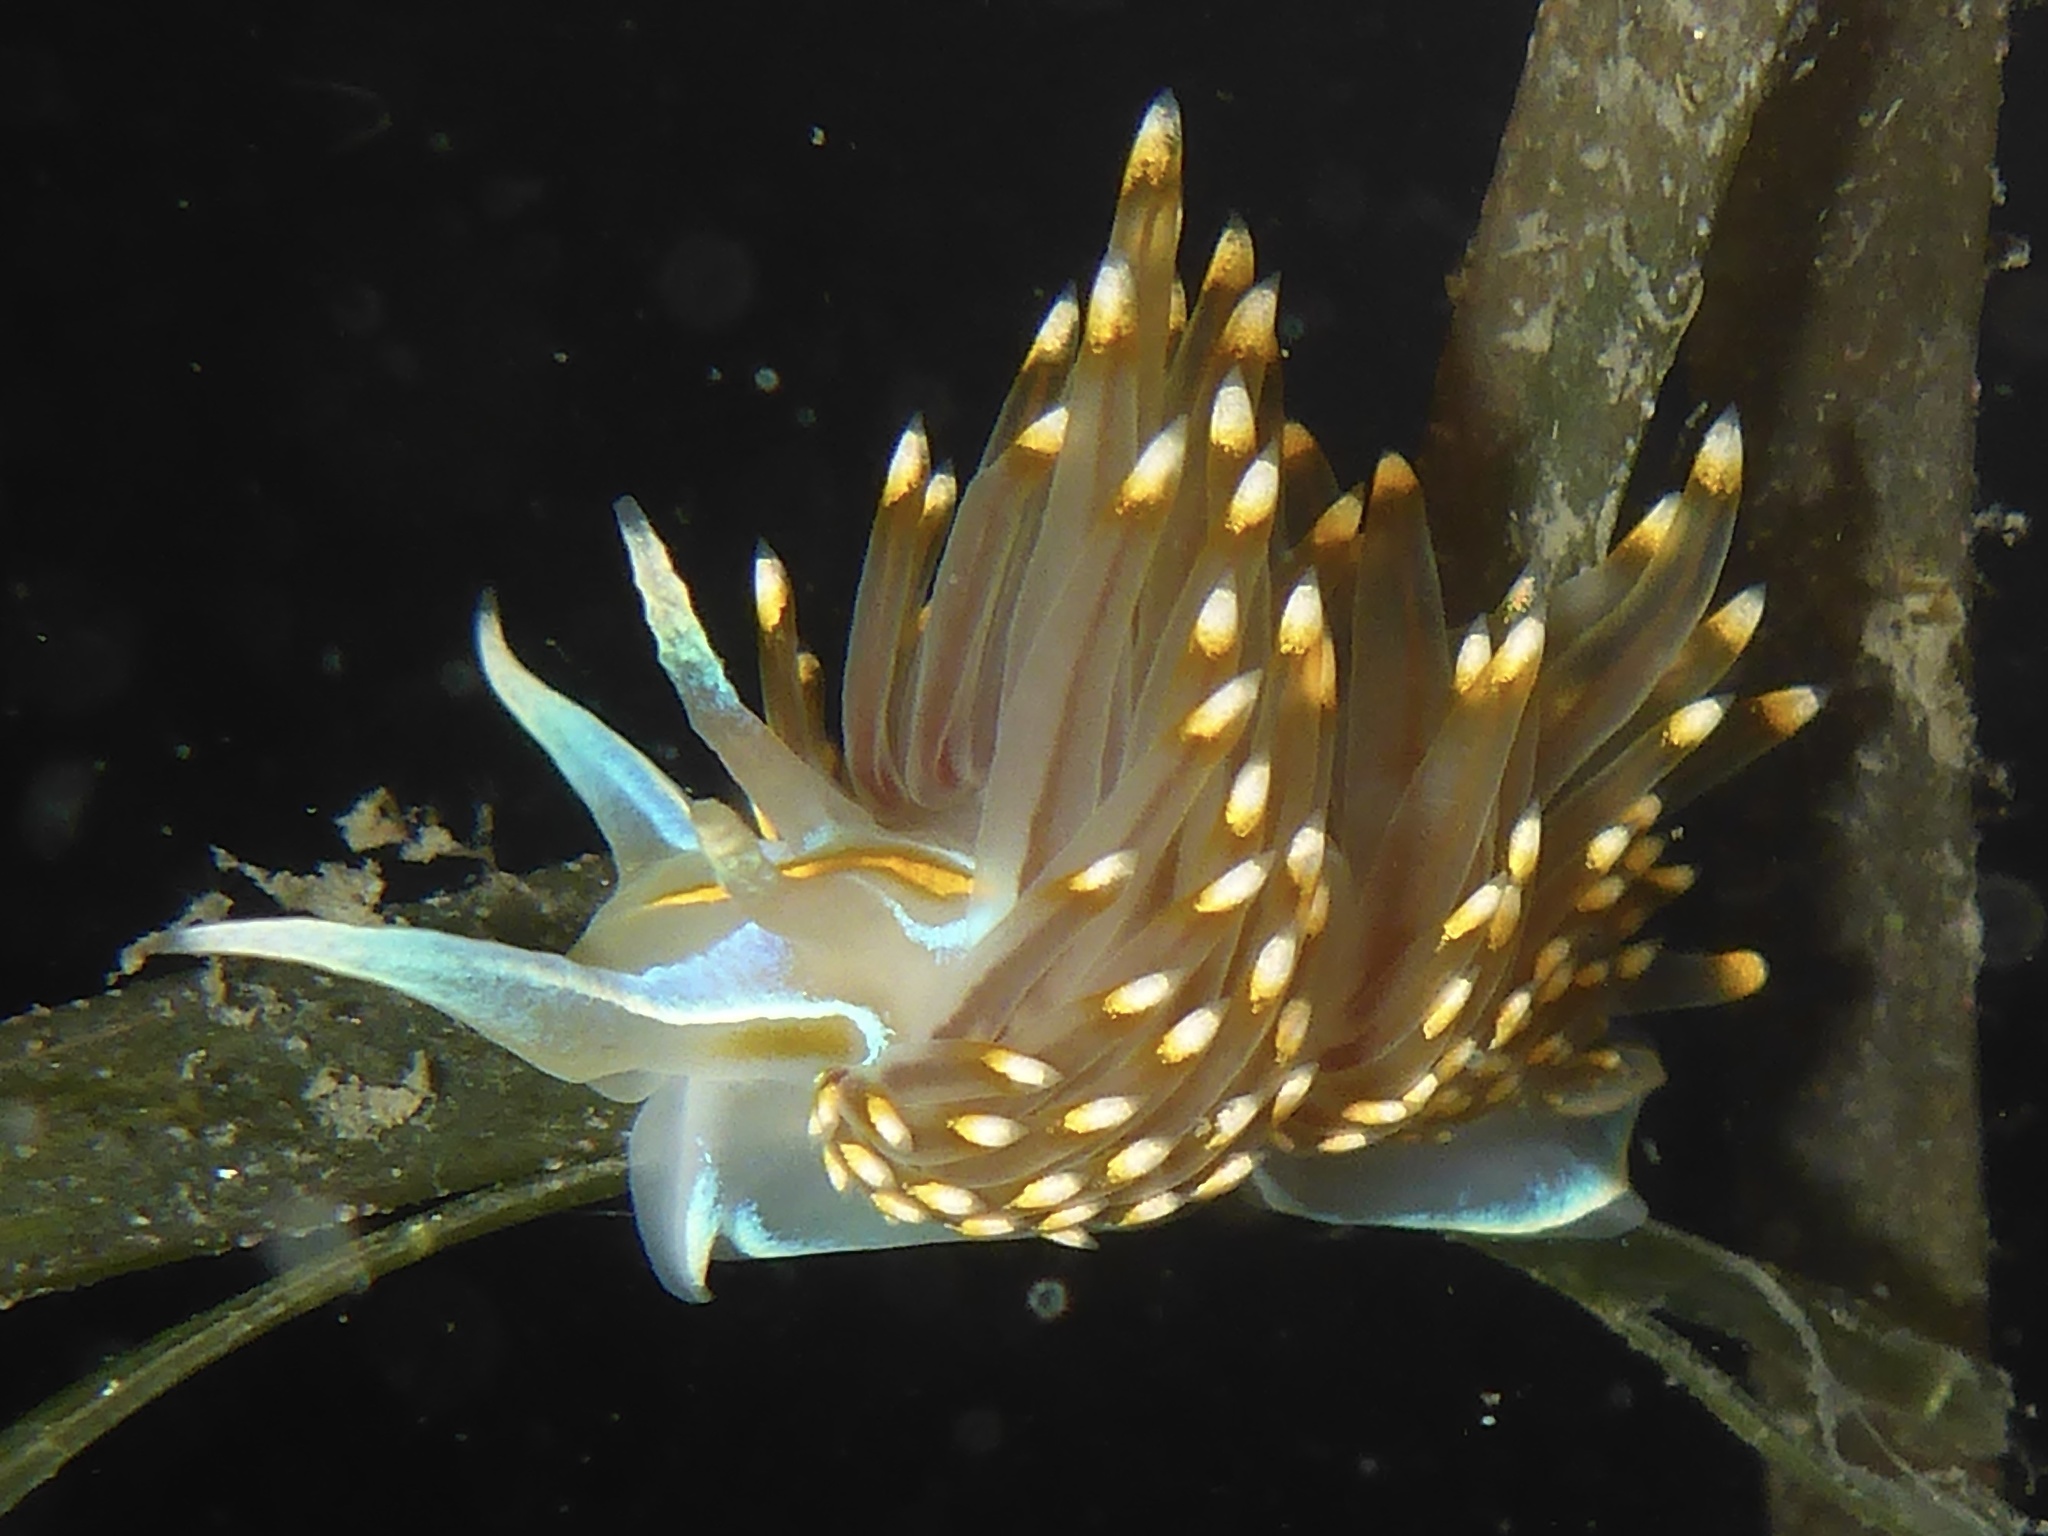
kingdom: Animalia
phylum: Mollusca
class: Gastropoda
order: Nudibranchia
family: Myrrhinidae
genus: Hermissenda
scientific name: Hermissenda opalescens
